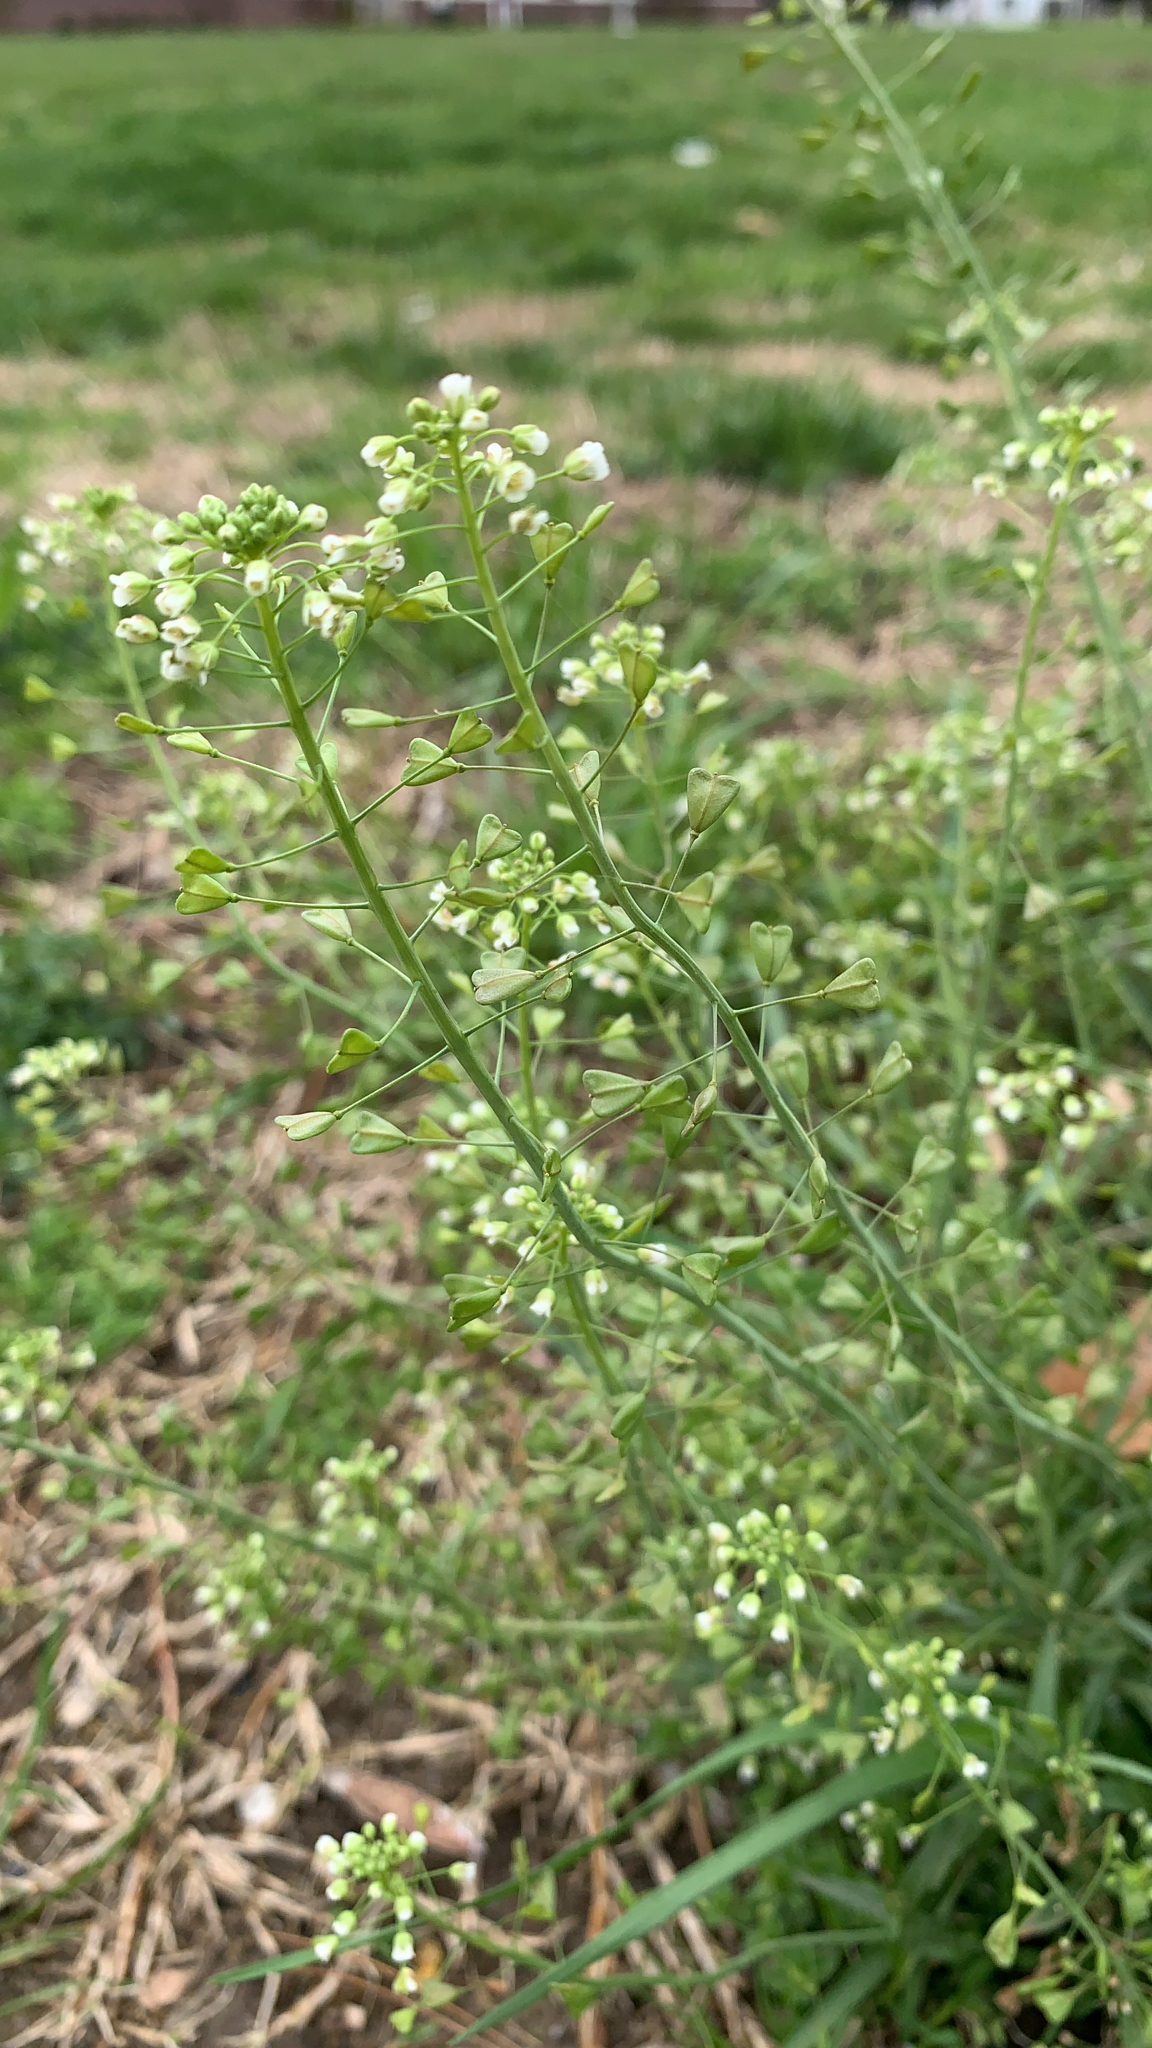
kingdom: Plantae
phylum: Tracheophyta
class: Magnoliopsida
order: Brassicales
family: Brassicaceae
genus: Capsella
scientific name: Capsella bursa-pastoris
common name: Shepherd's purse
